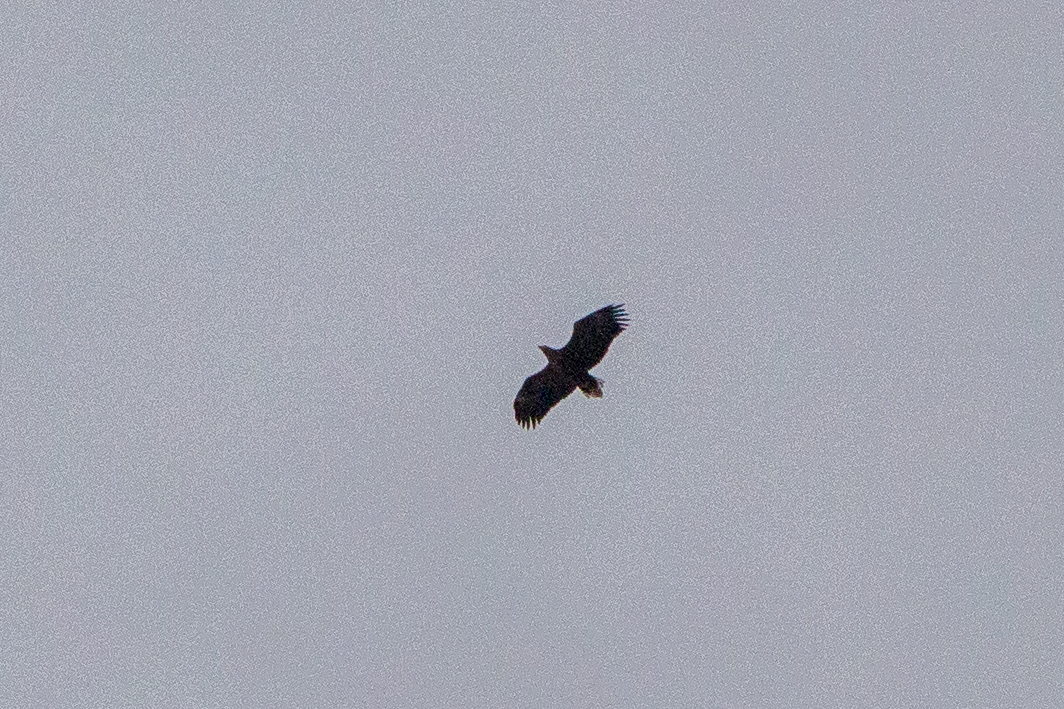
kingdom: Animalia
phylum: Chordata
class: Aves
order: Accipitriformes
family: Accipitridae
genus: Haliaeetus
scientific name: Haliaeetus albicilla
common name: White-tailed eagle
